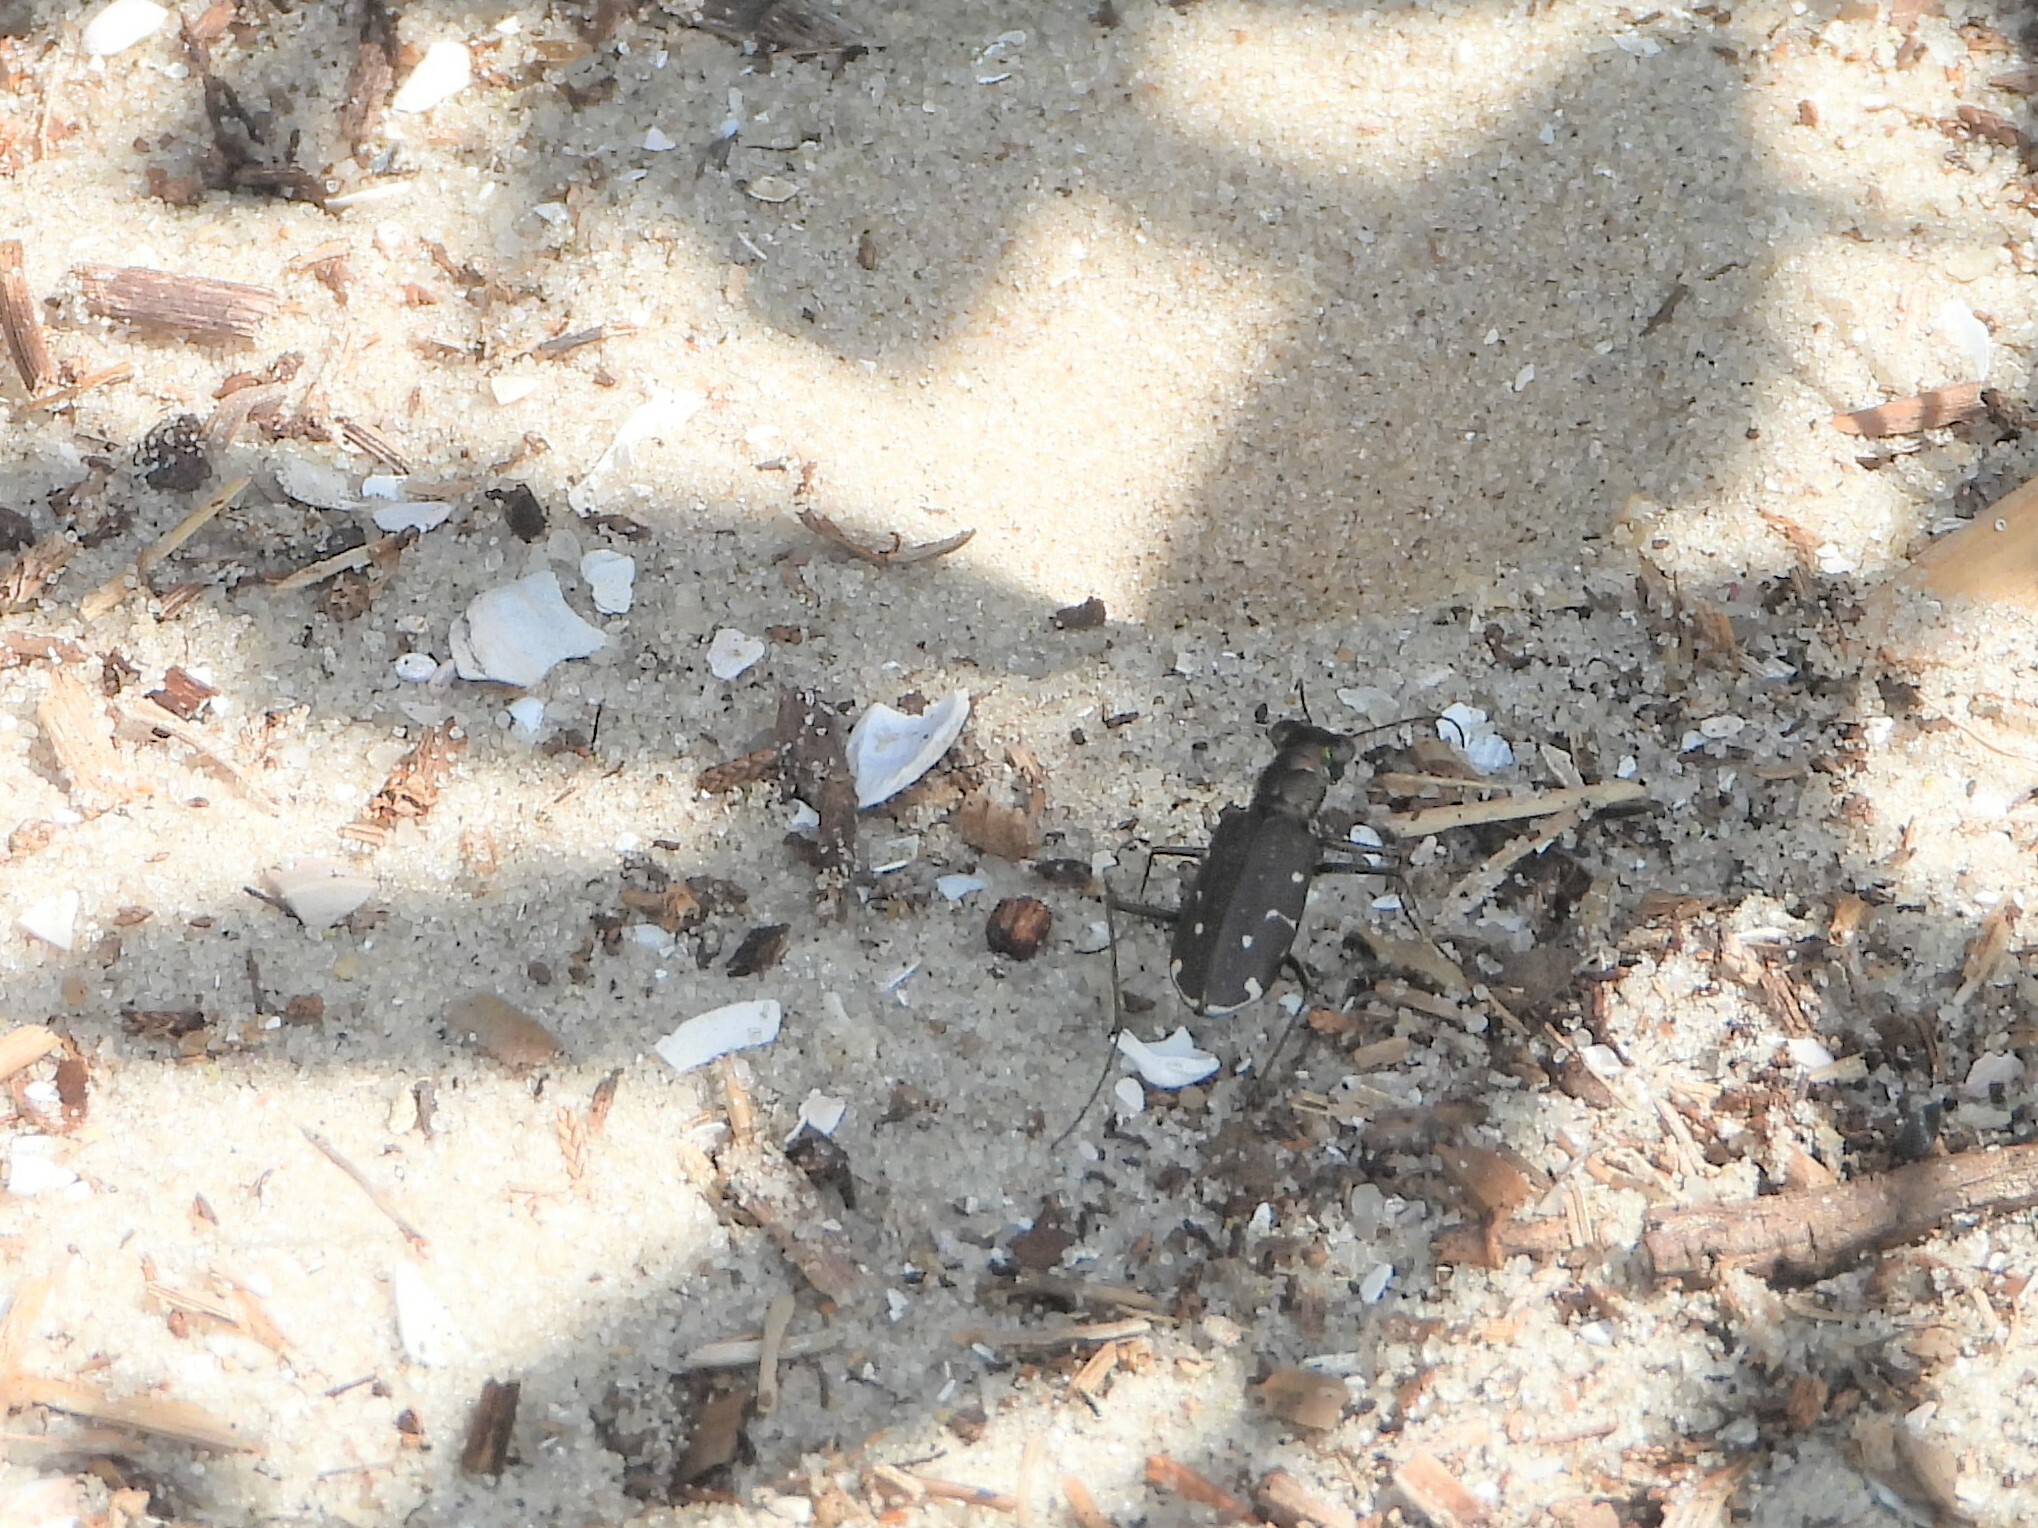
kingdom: Animalia
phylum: Arthropoda
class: Insecta
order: Coleoptera
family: Carabidae
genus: Cicindela
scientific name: Cicindela punctulata
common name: Punctured tiger beetle
